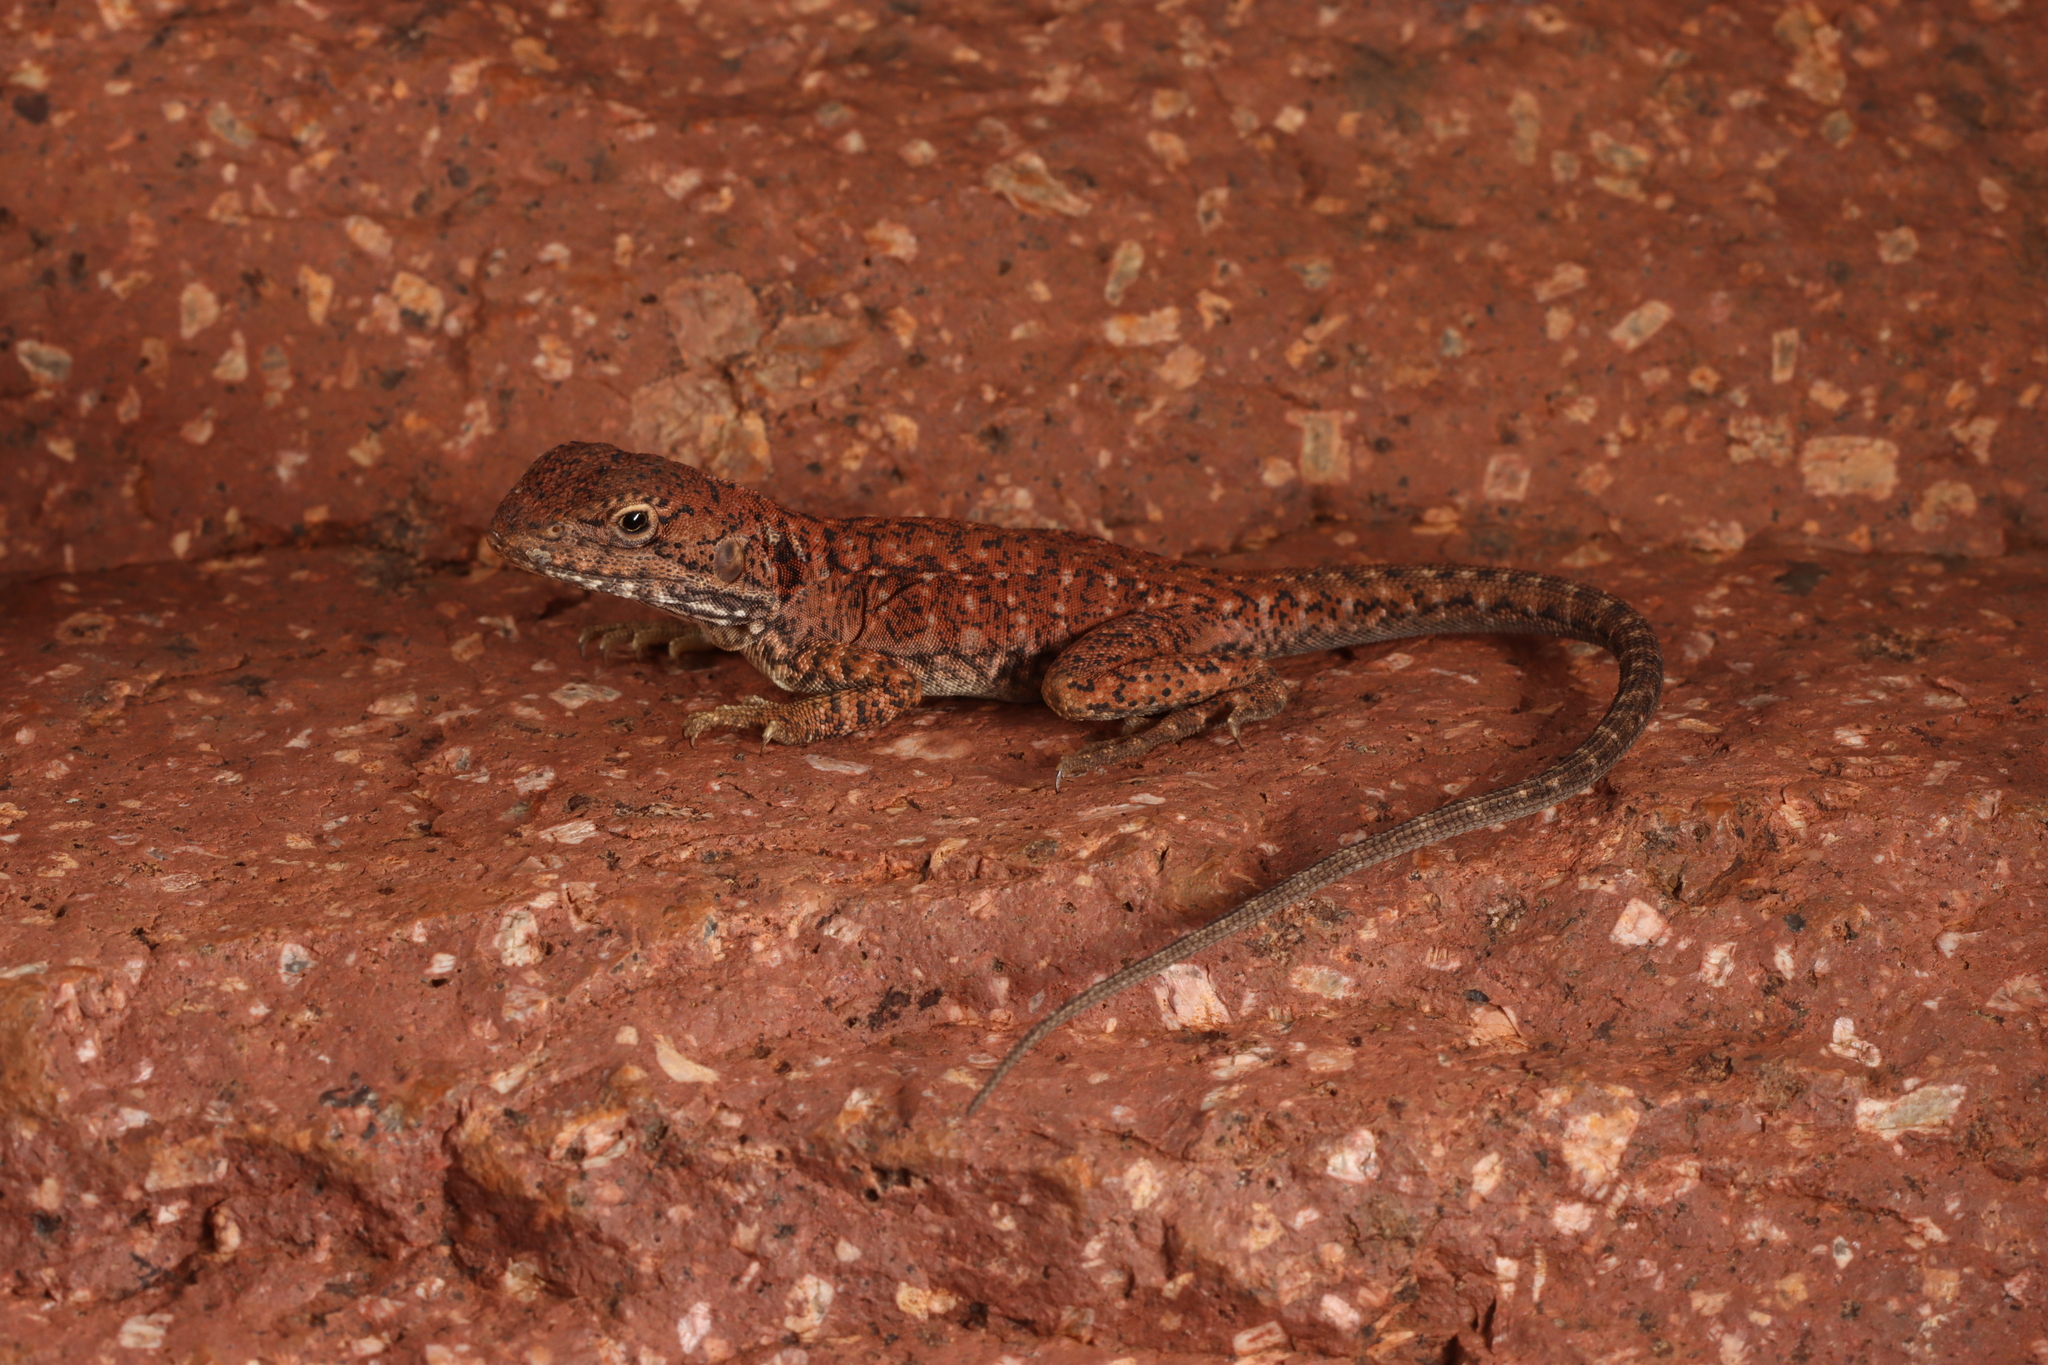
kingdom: Animalia
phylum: Chordata
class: Squamata
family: Agamidae
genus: Ctenophorus
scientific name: Ctenophorus fionni
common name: Peninsula crevis-dragon
